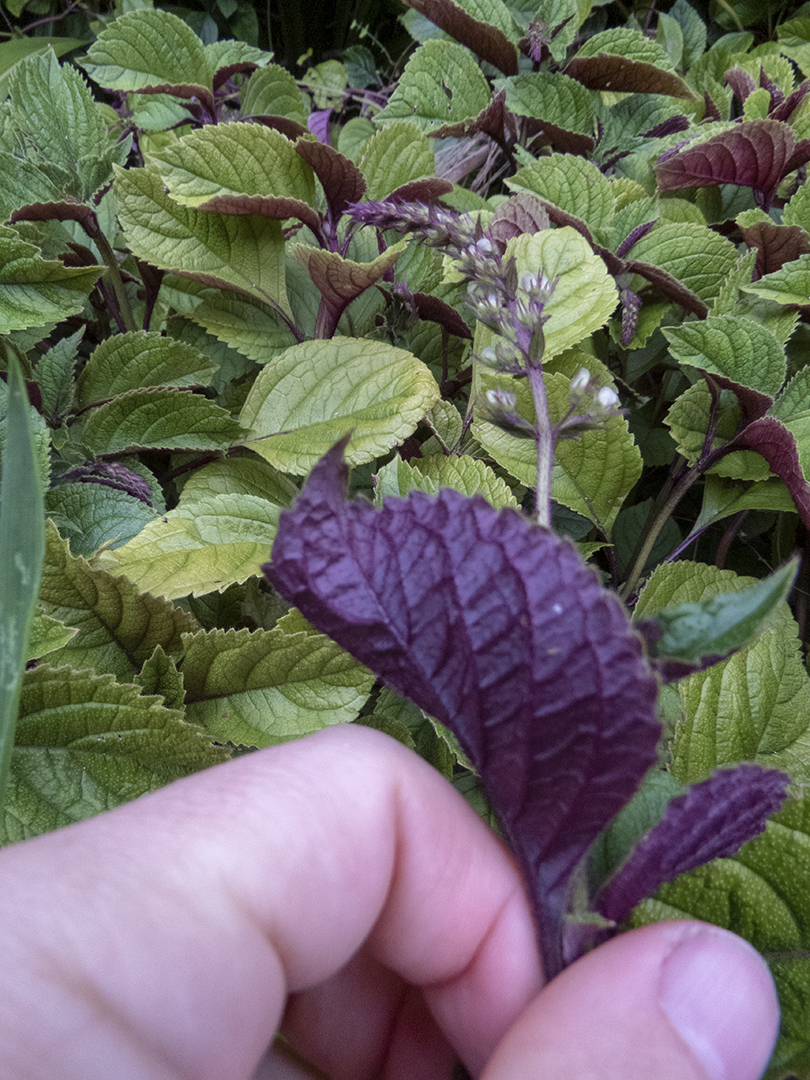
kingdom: Plantae
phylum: Tracheophyta
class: Magnoliopsida
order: Lamiales
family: Lamiaceae
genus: Plectranthus
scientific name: Plectranthus ciliatus
